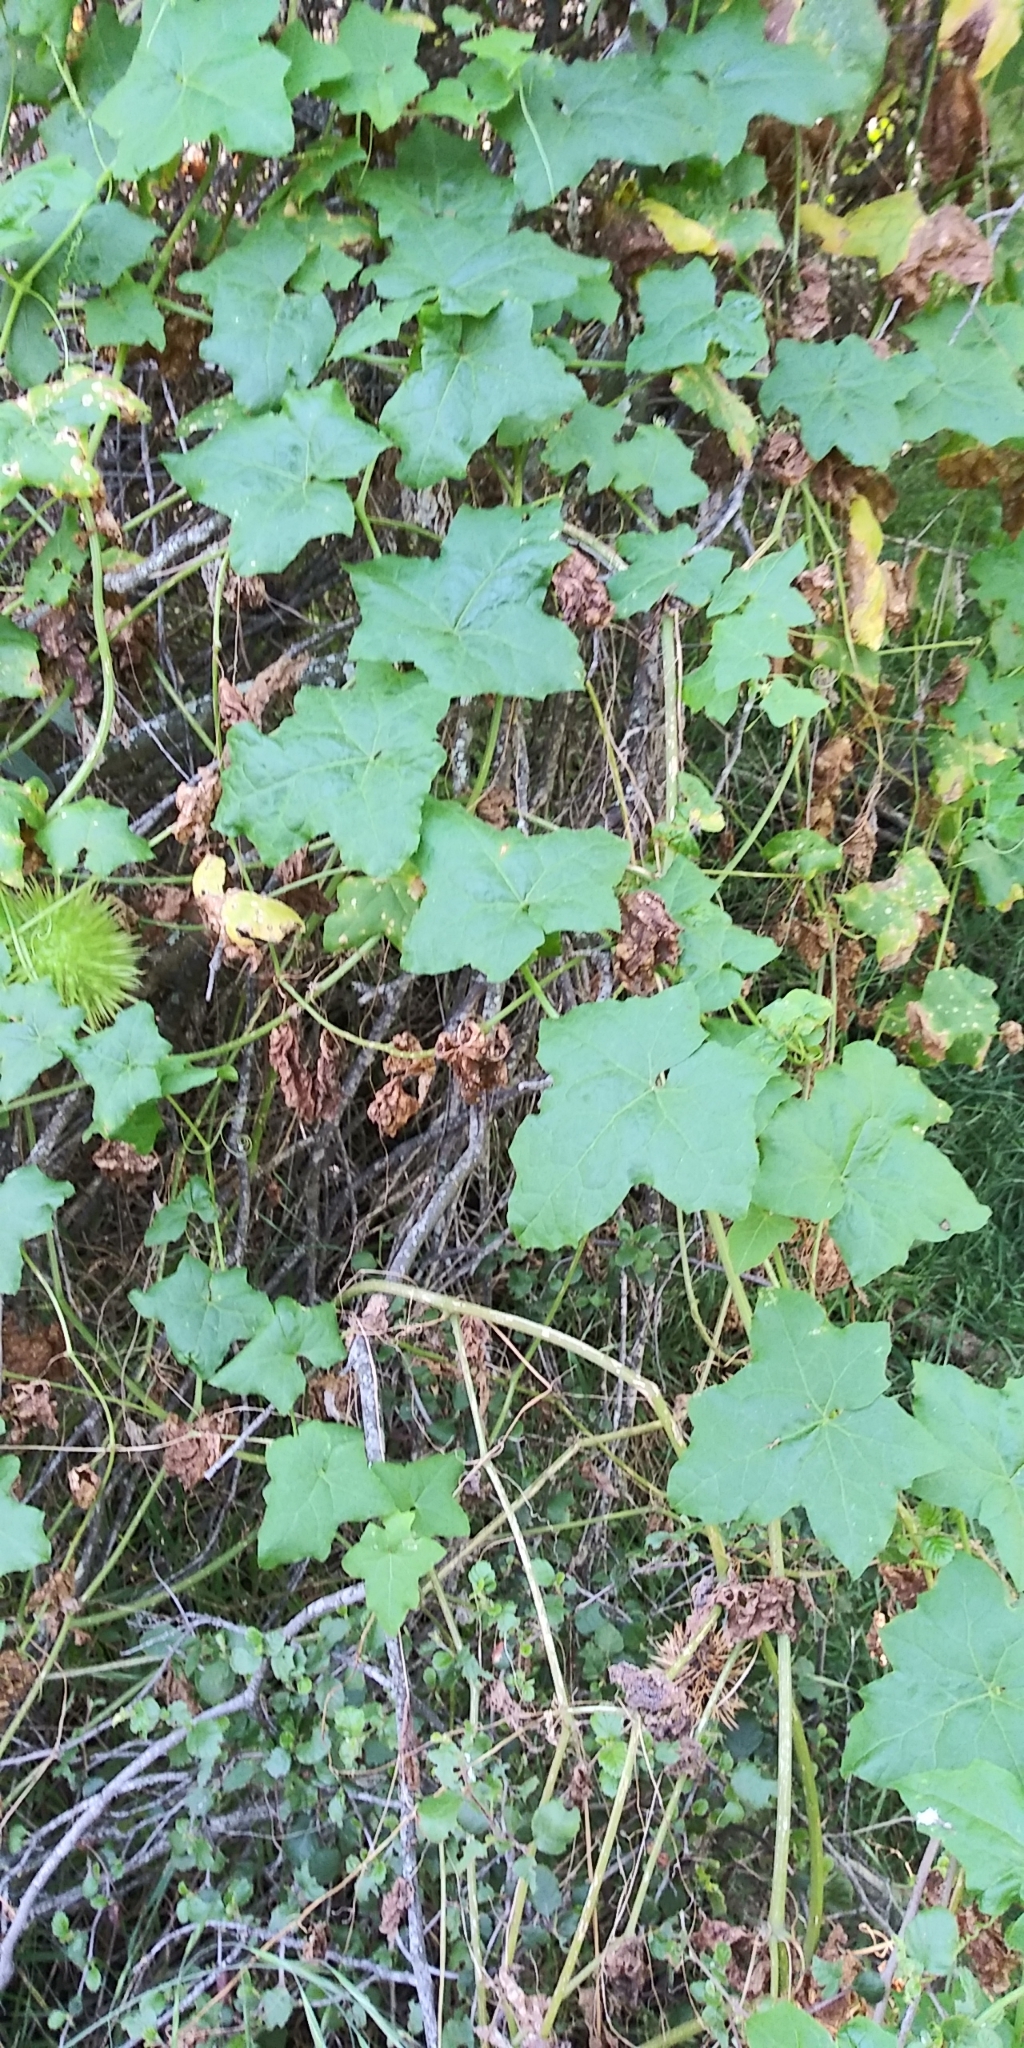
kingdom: Plantae
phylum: Tracheophyta
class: Magnoliopsida
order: Cucurbitales
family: Cucurbitaceae
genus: Marah
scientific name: Marah macrocarpa
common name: Cucamonga manroot
